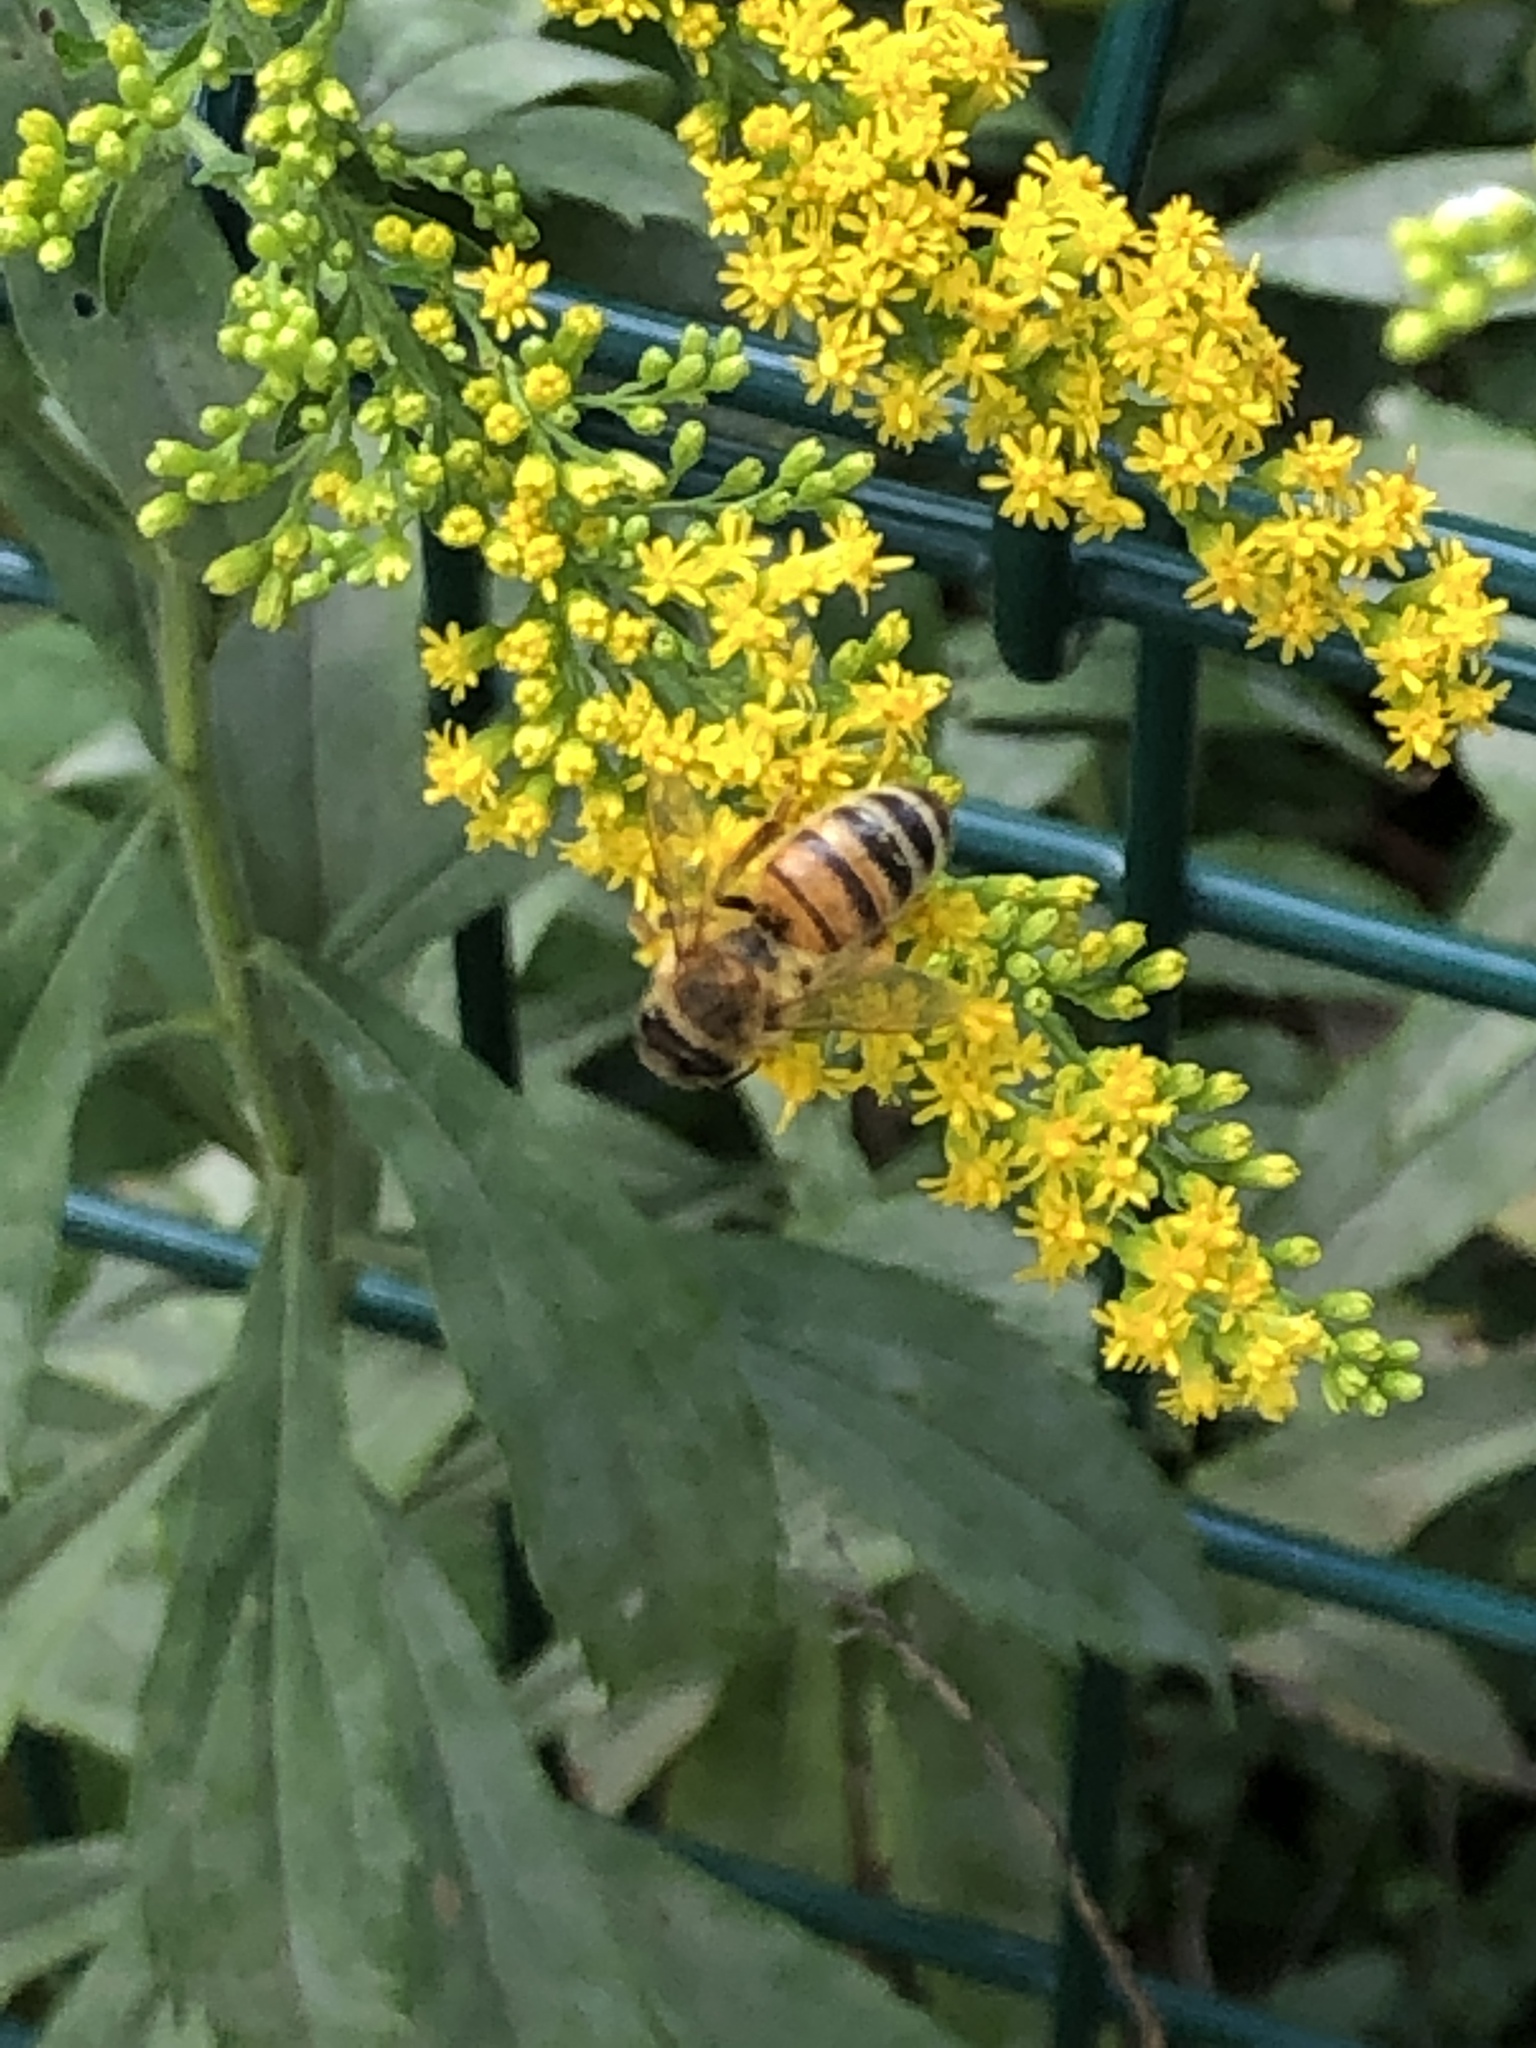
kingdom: Animalia
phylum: Arthropoda
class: Insecta
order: Hymenoptera
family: Apidae
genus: Apis
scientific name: Apis mellifera
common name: Honey bee
